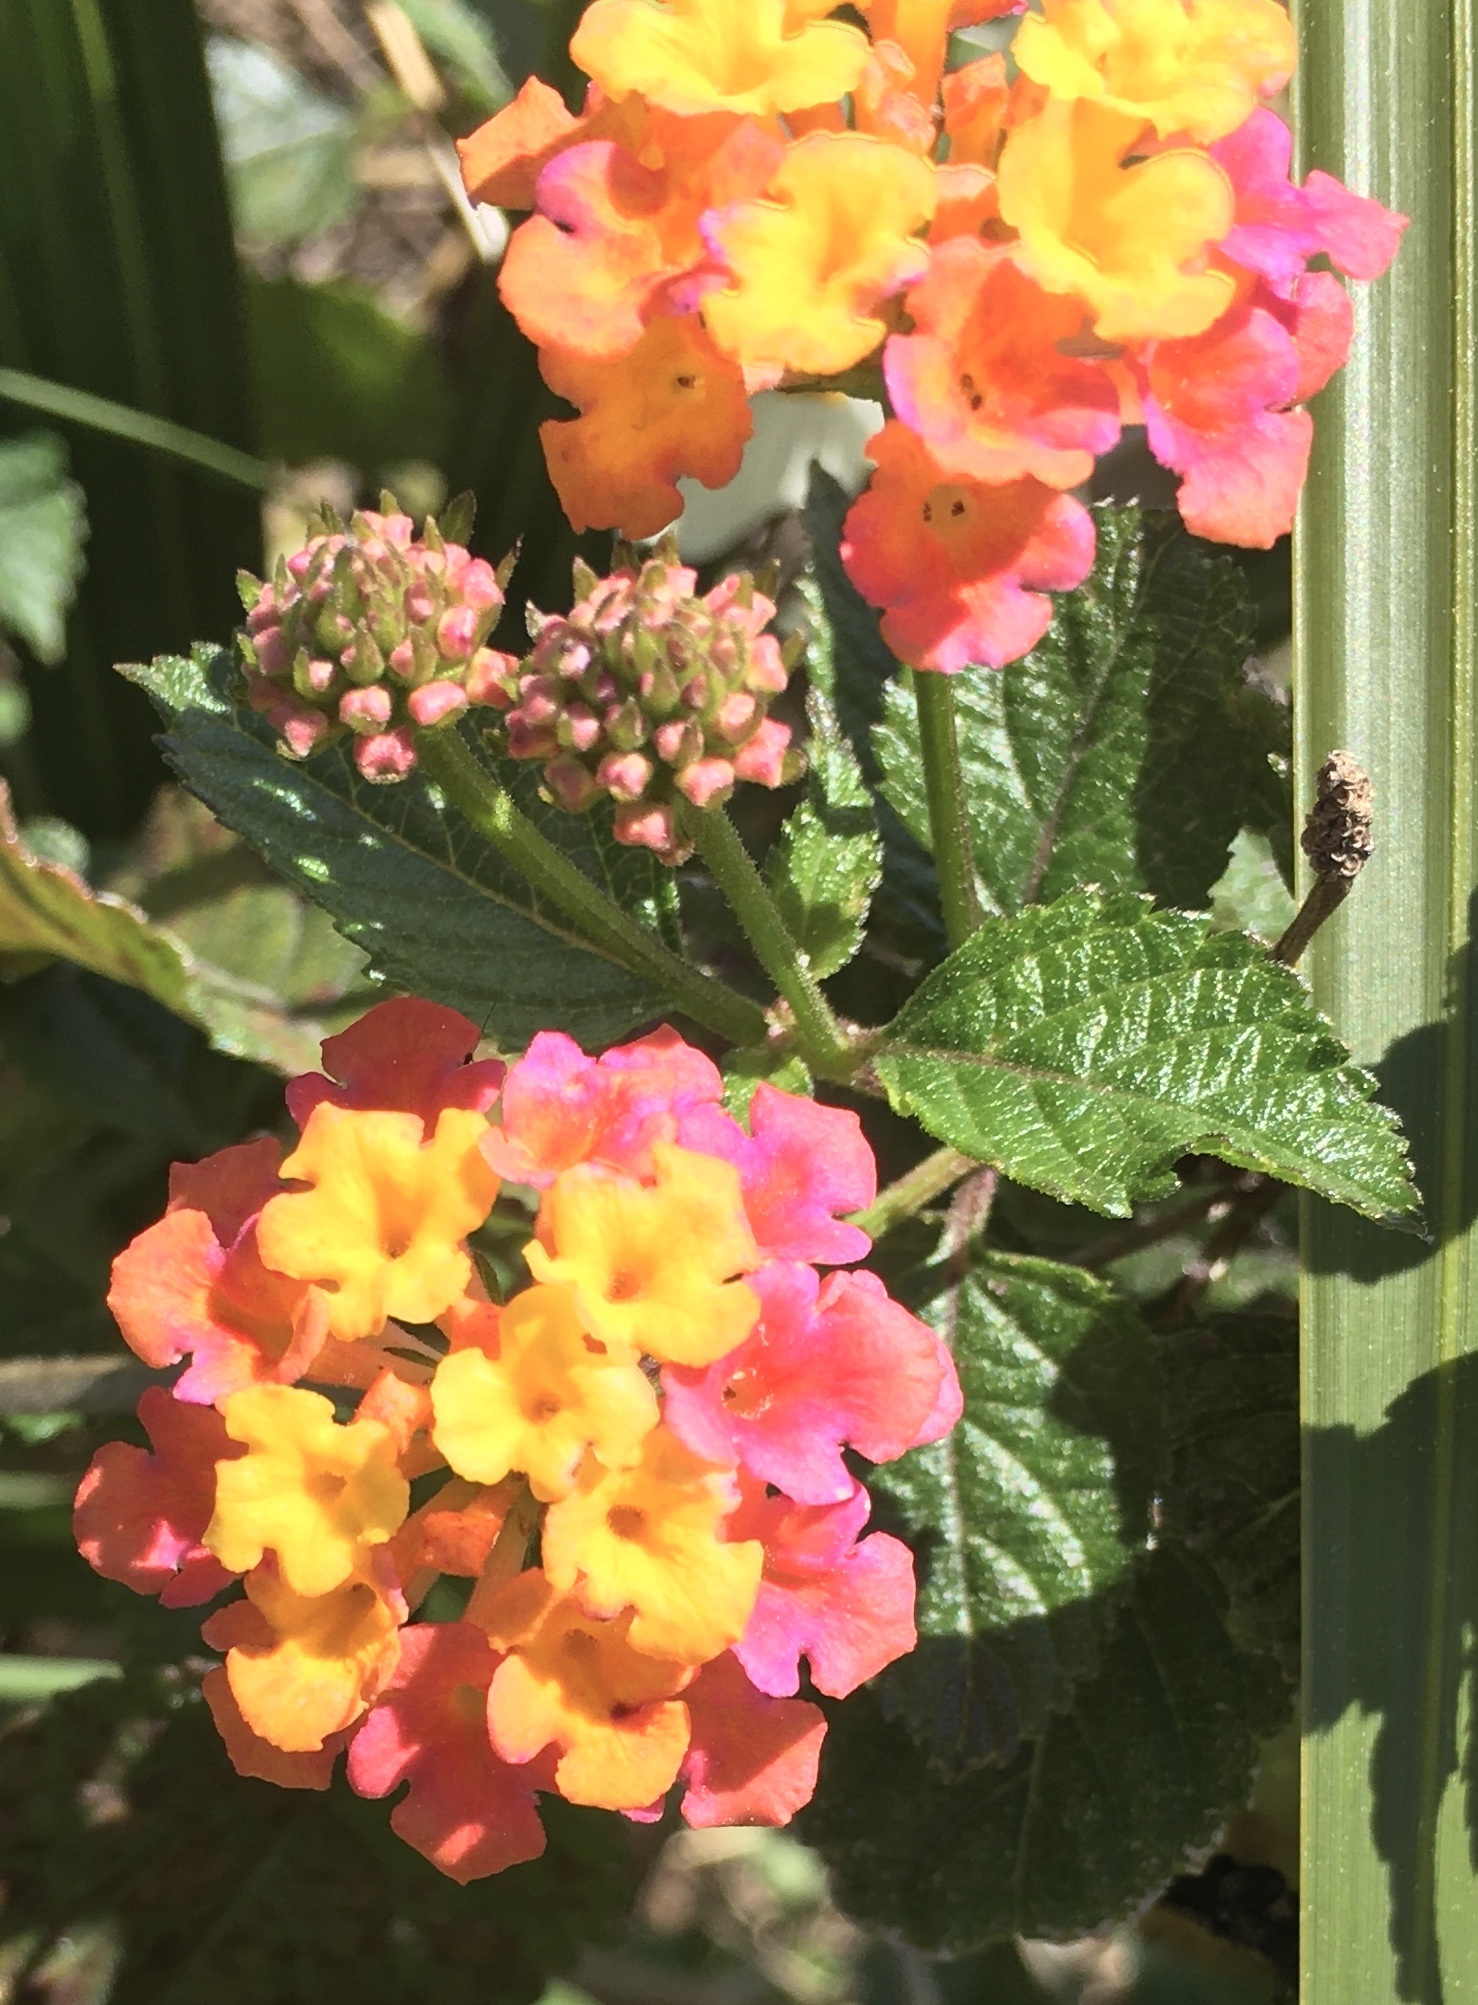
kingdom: Plantae
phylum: Tracheophyta
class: Magnoliopsida
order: Lamiales
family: Verbenaceae
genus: Lantana
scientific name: Lantana camara
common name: Lantana
